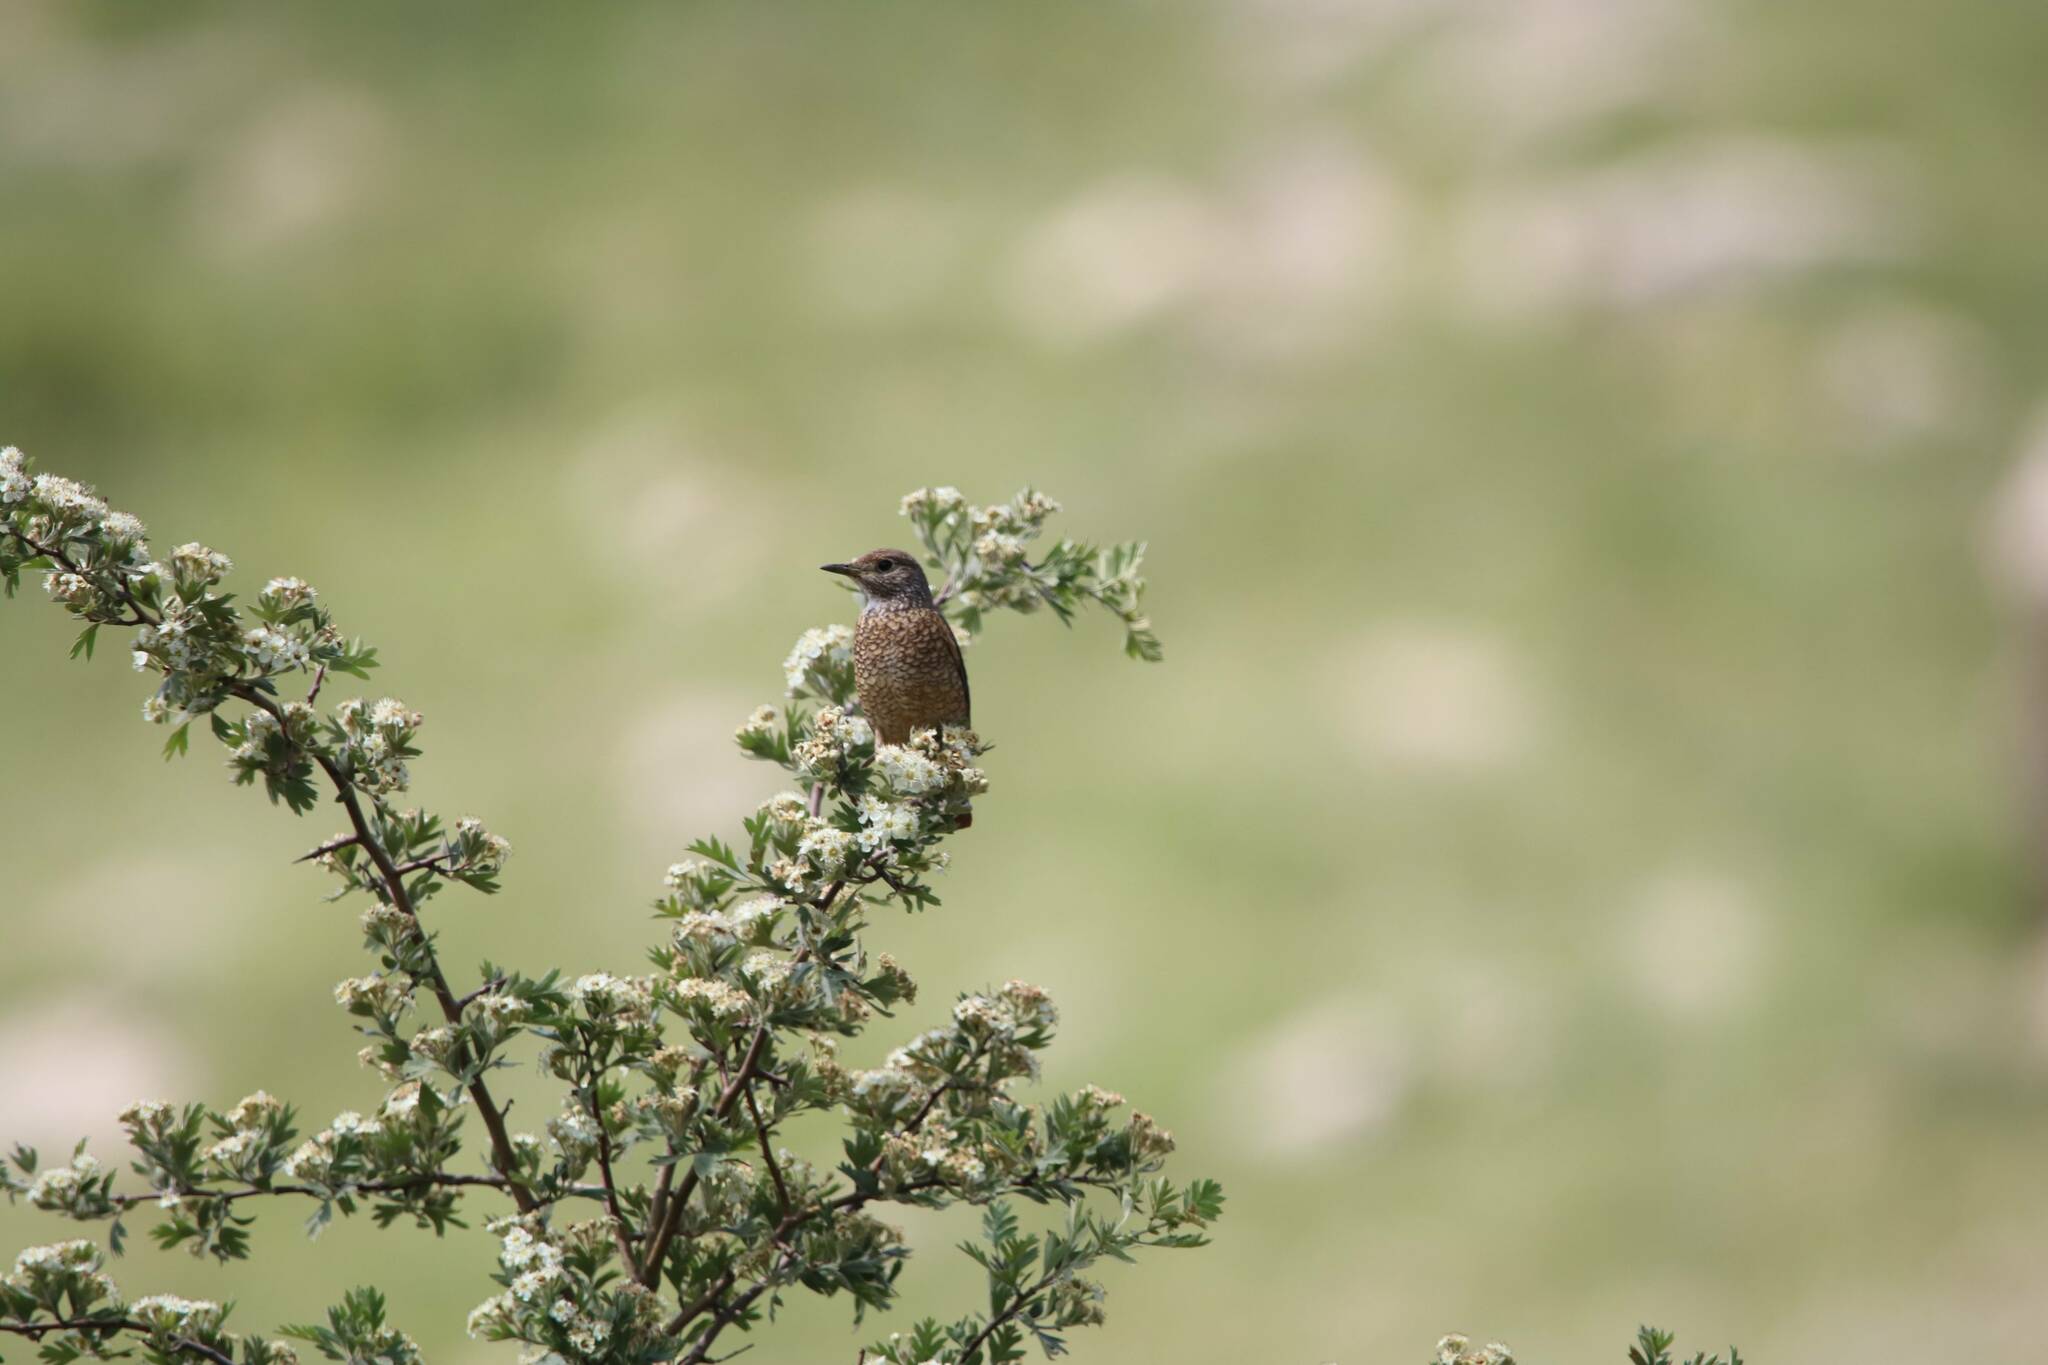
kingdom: Animalia
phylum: Chordata
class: Aves
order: Passeriformes
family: Muscicapidae
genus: Monticola
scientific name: Monticola saxatilis
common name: Rufous-tailed rock thrush
